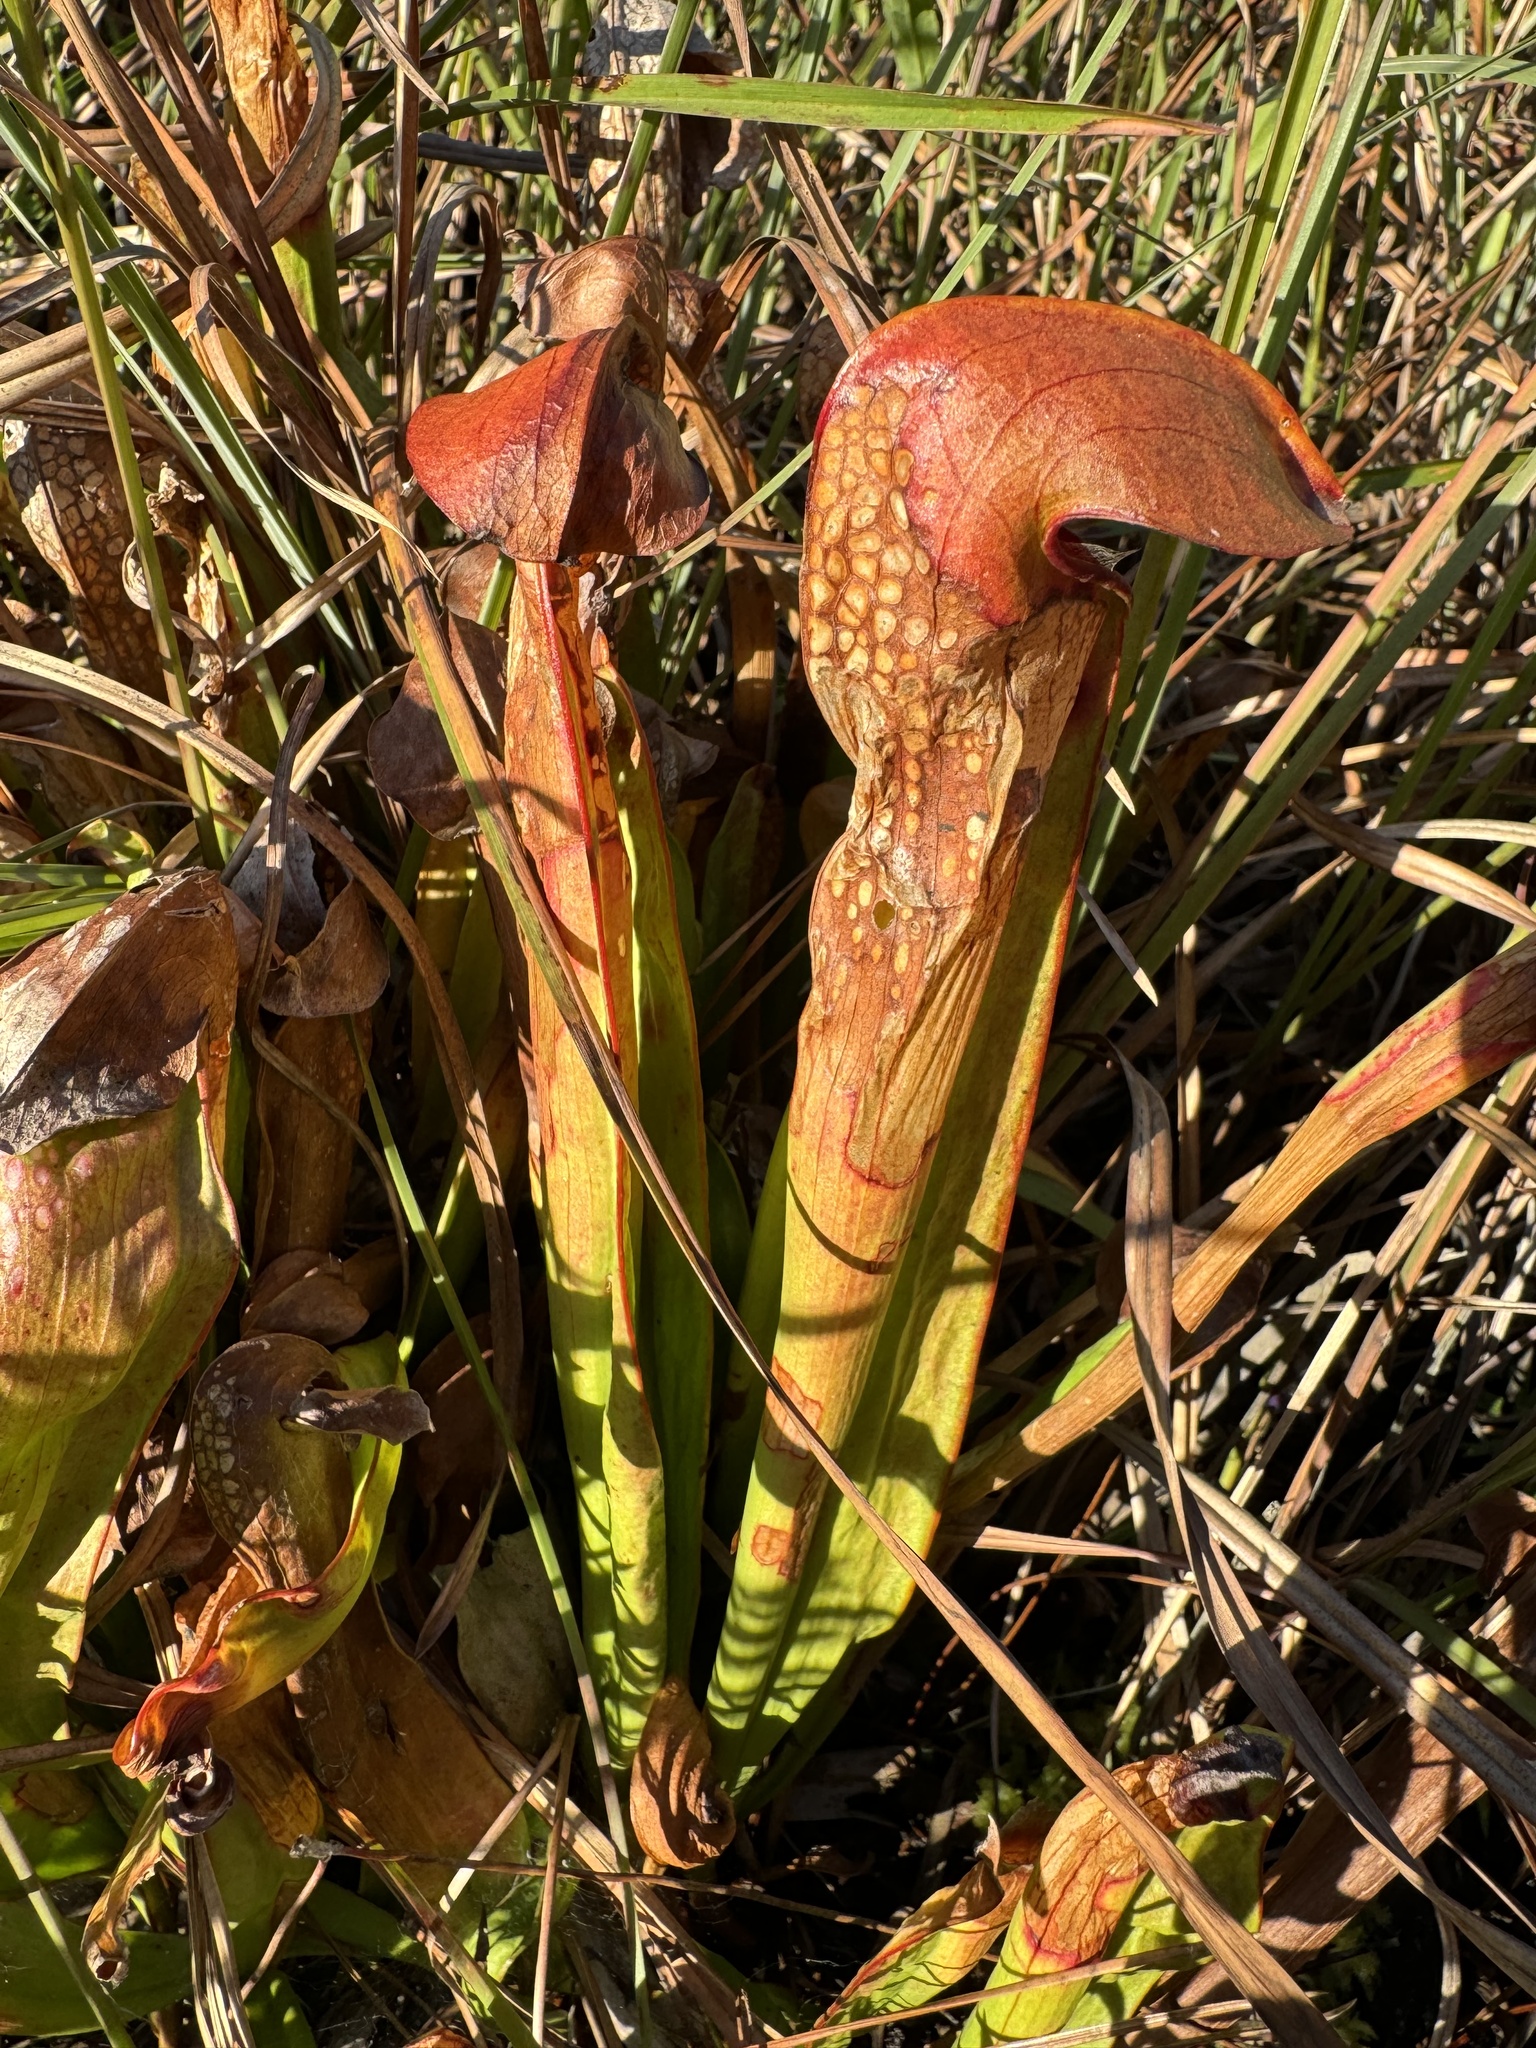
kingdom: Plantae
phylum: Tracheophyta
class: Magnoliopsida
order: Ericales
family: Sarraceniaceae
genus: Sarracenia
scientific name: Sarracenia minor
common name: Rainhat-trumpet
